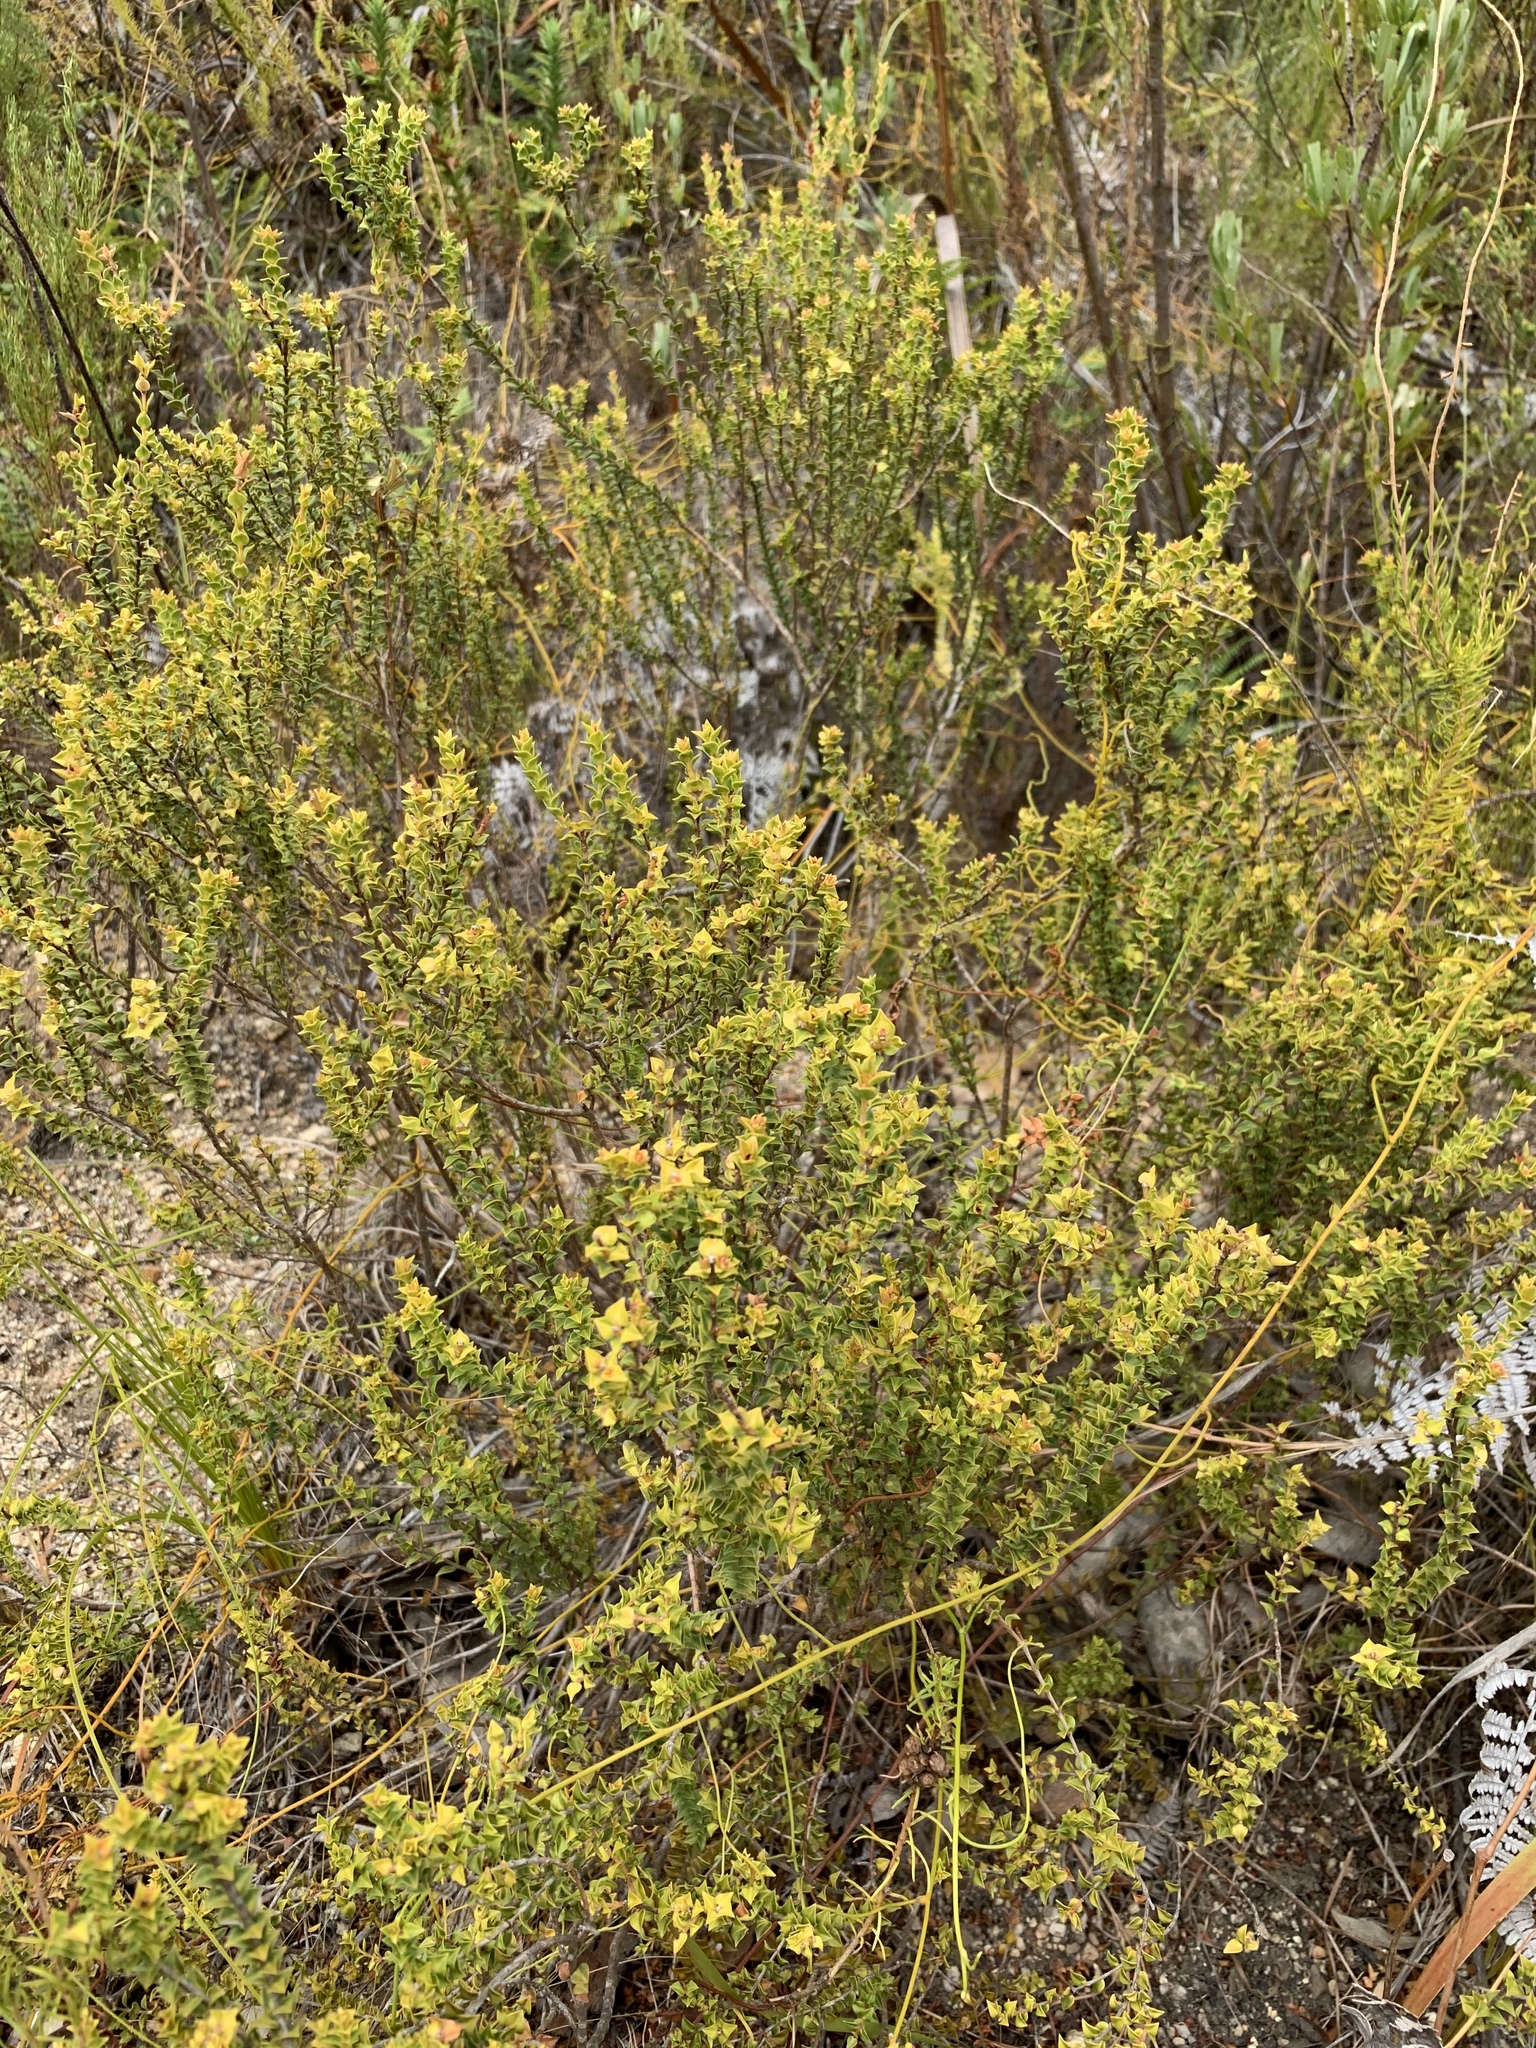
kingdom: Plantae
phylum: Tracheophyta
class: Magnoliopsida
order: Myrtales
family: Penaeaceae
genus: Penaea
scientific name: Penaea mucronata
